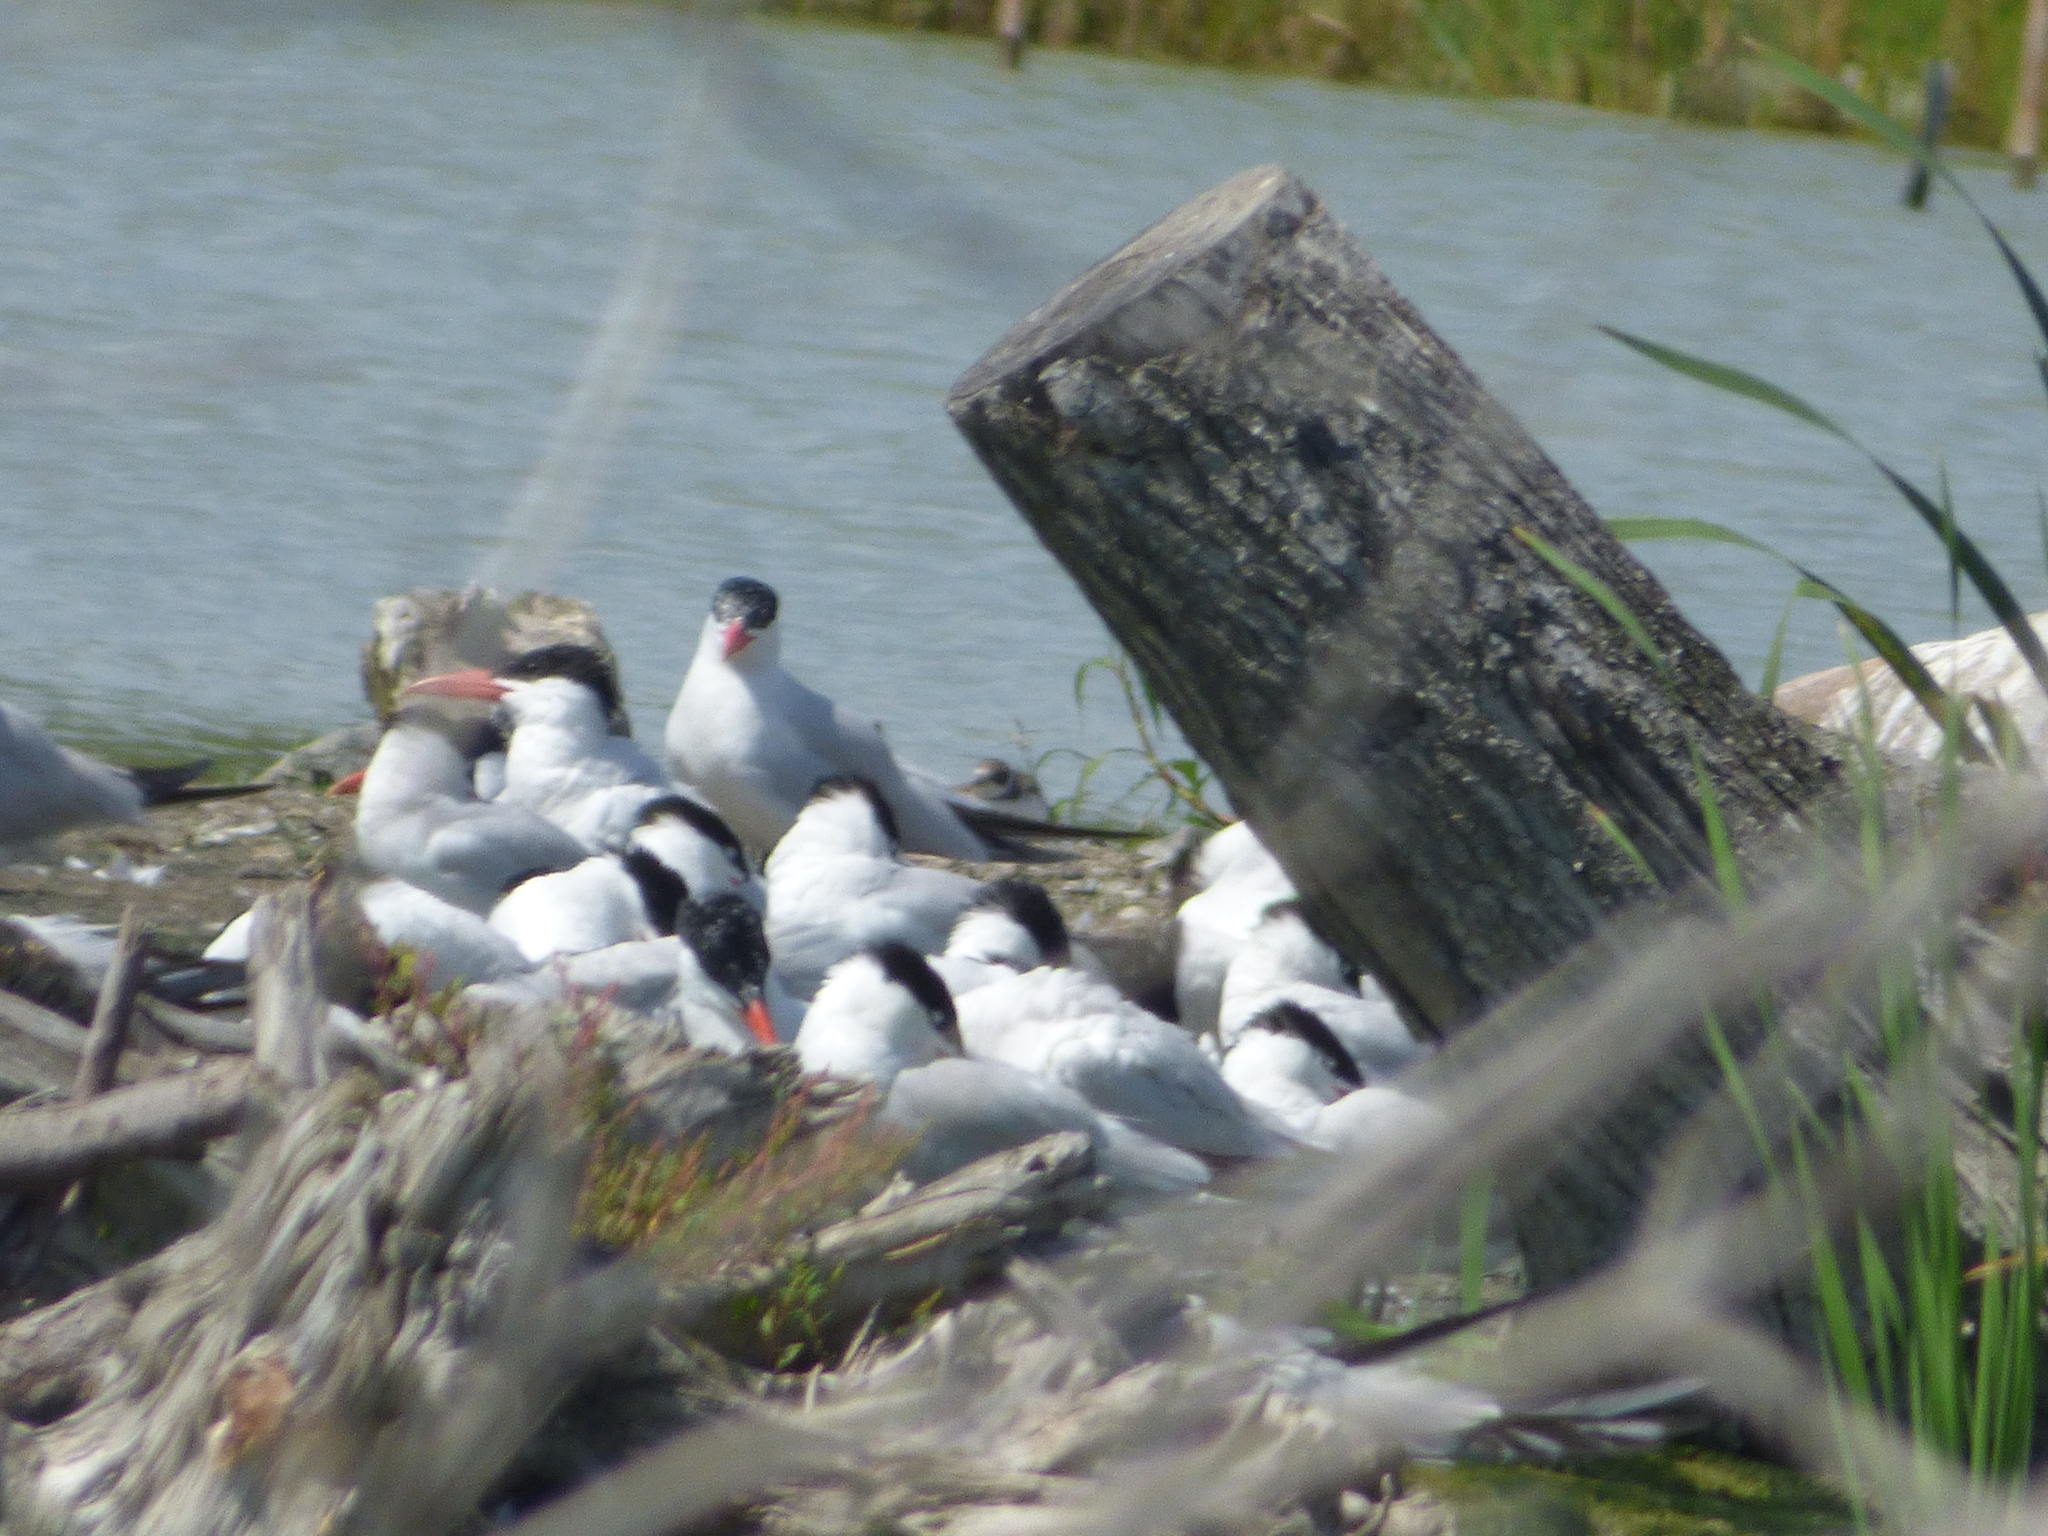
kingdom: Animalia
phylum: Chordata
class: Aves
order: Charadriiformes
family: Laridae
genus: Hydroprogne
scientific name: Hydroprogne caspia
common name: Caspian tern
